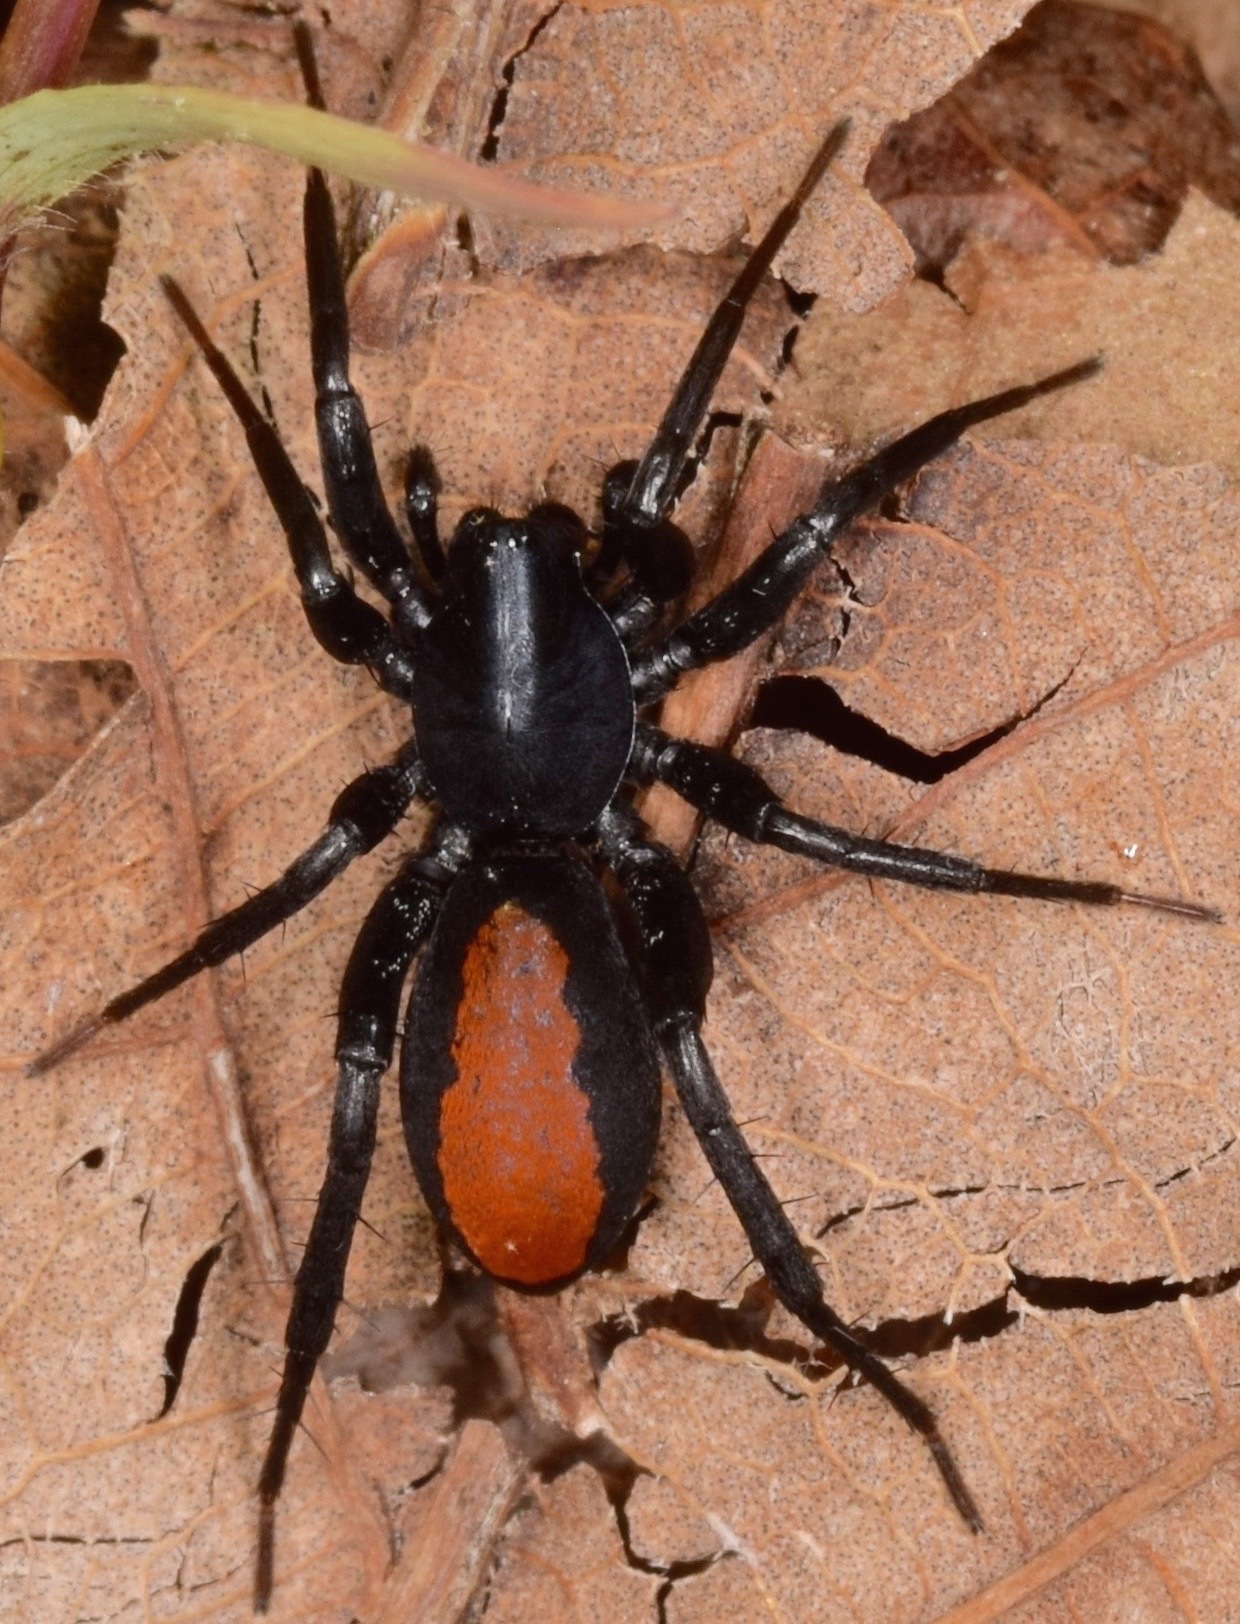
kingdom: Animalia
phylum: Arthropoda
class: Arachnida
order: Araneae
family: Corinnidae
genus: Castianeira
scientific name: Castianeira descripta
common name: Red-spotted ant-mimic sac spider
